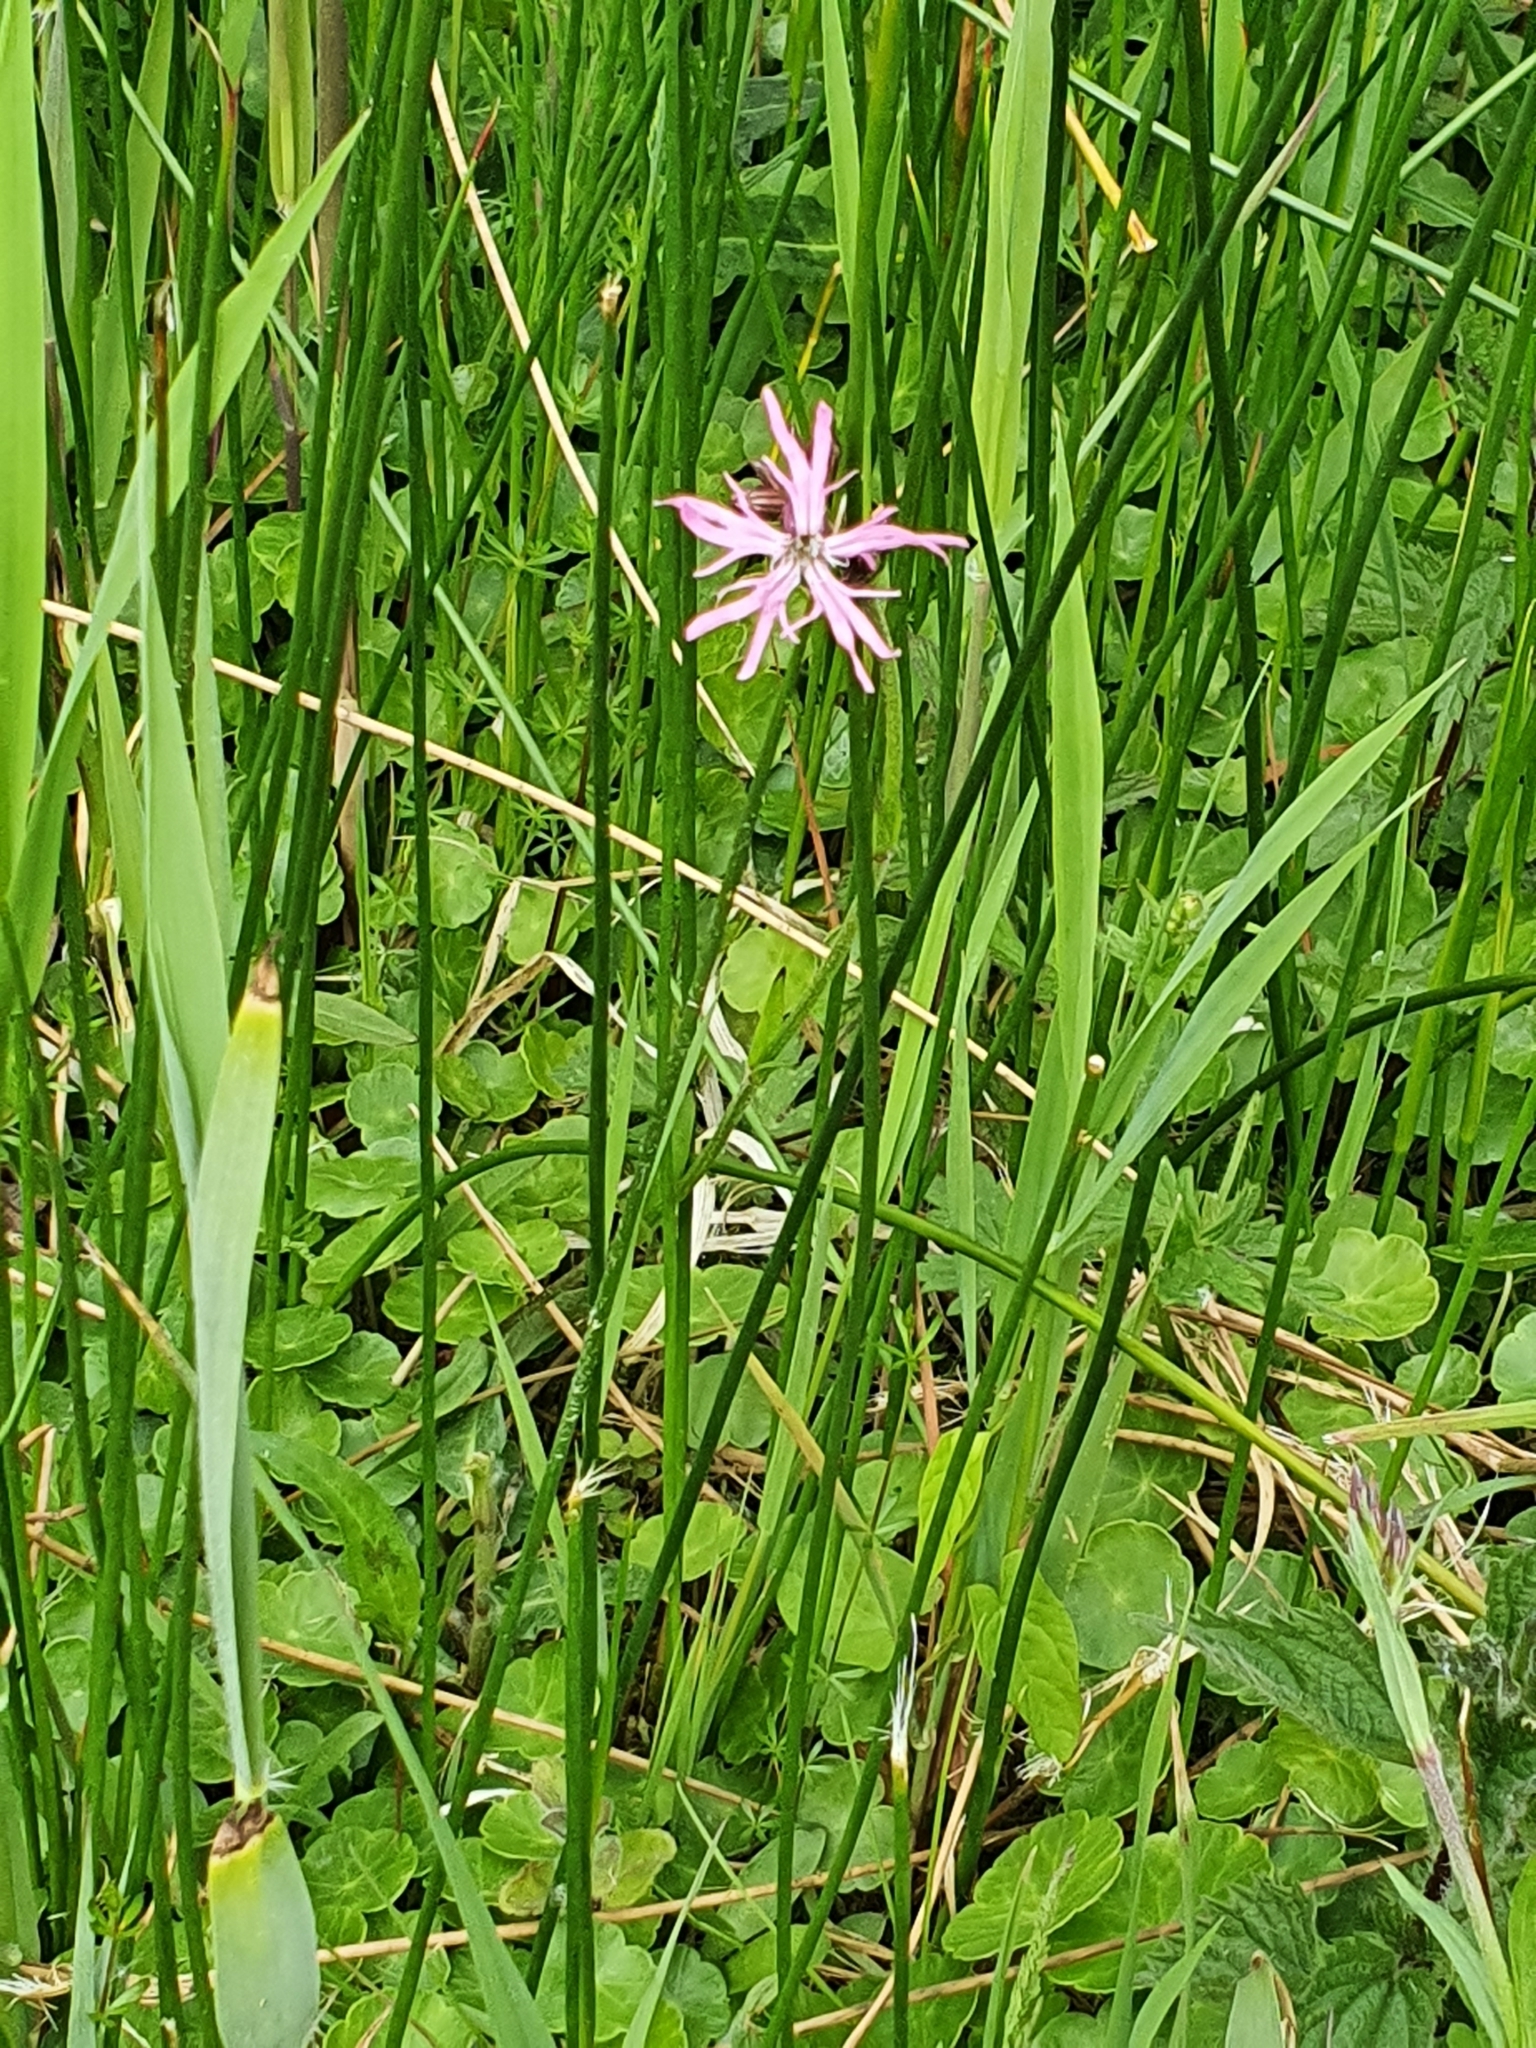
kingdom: Plantae
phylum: Tracheophyta
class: Magnoliopsida
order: Caryophyllales
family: Caryophyllaceae
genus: Silene
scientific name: Silene flos-cuculi
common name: Ragged-robin
